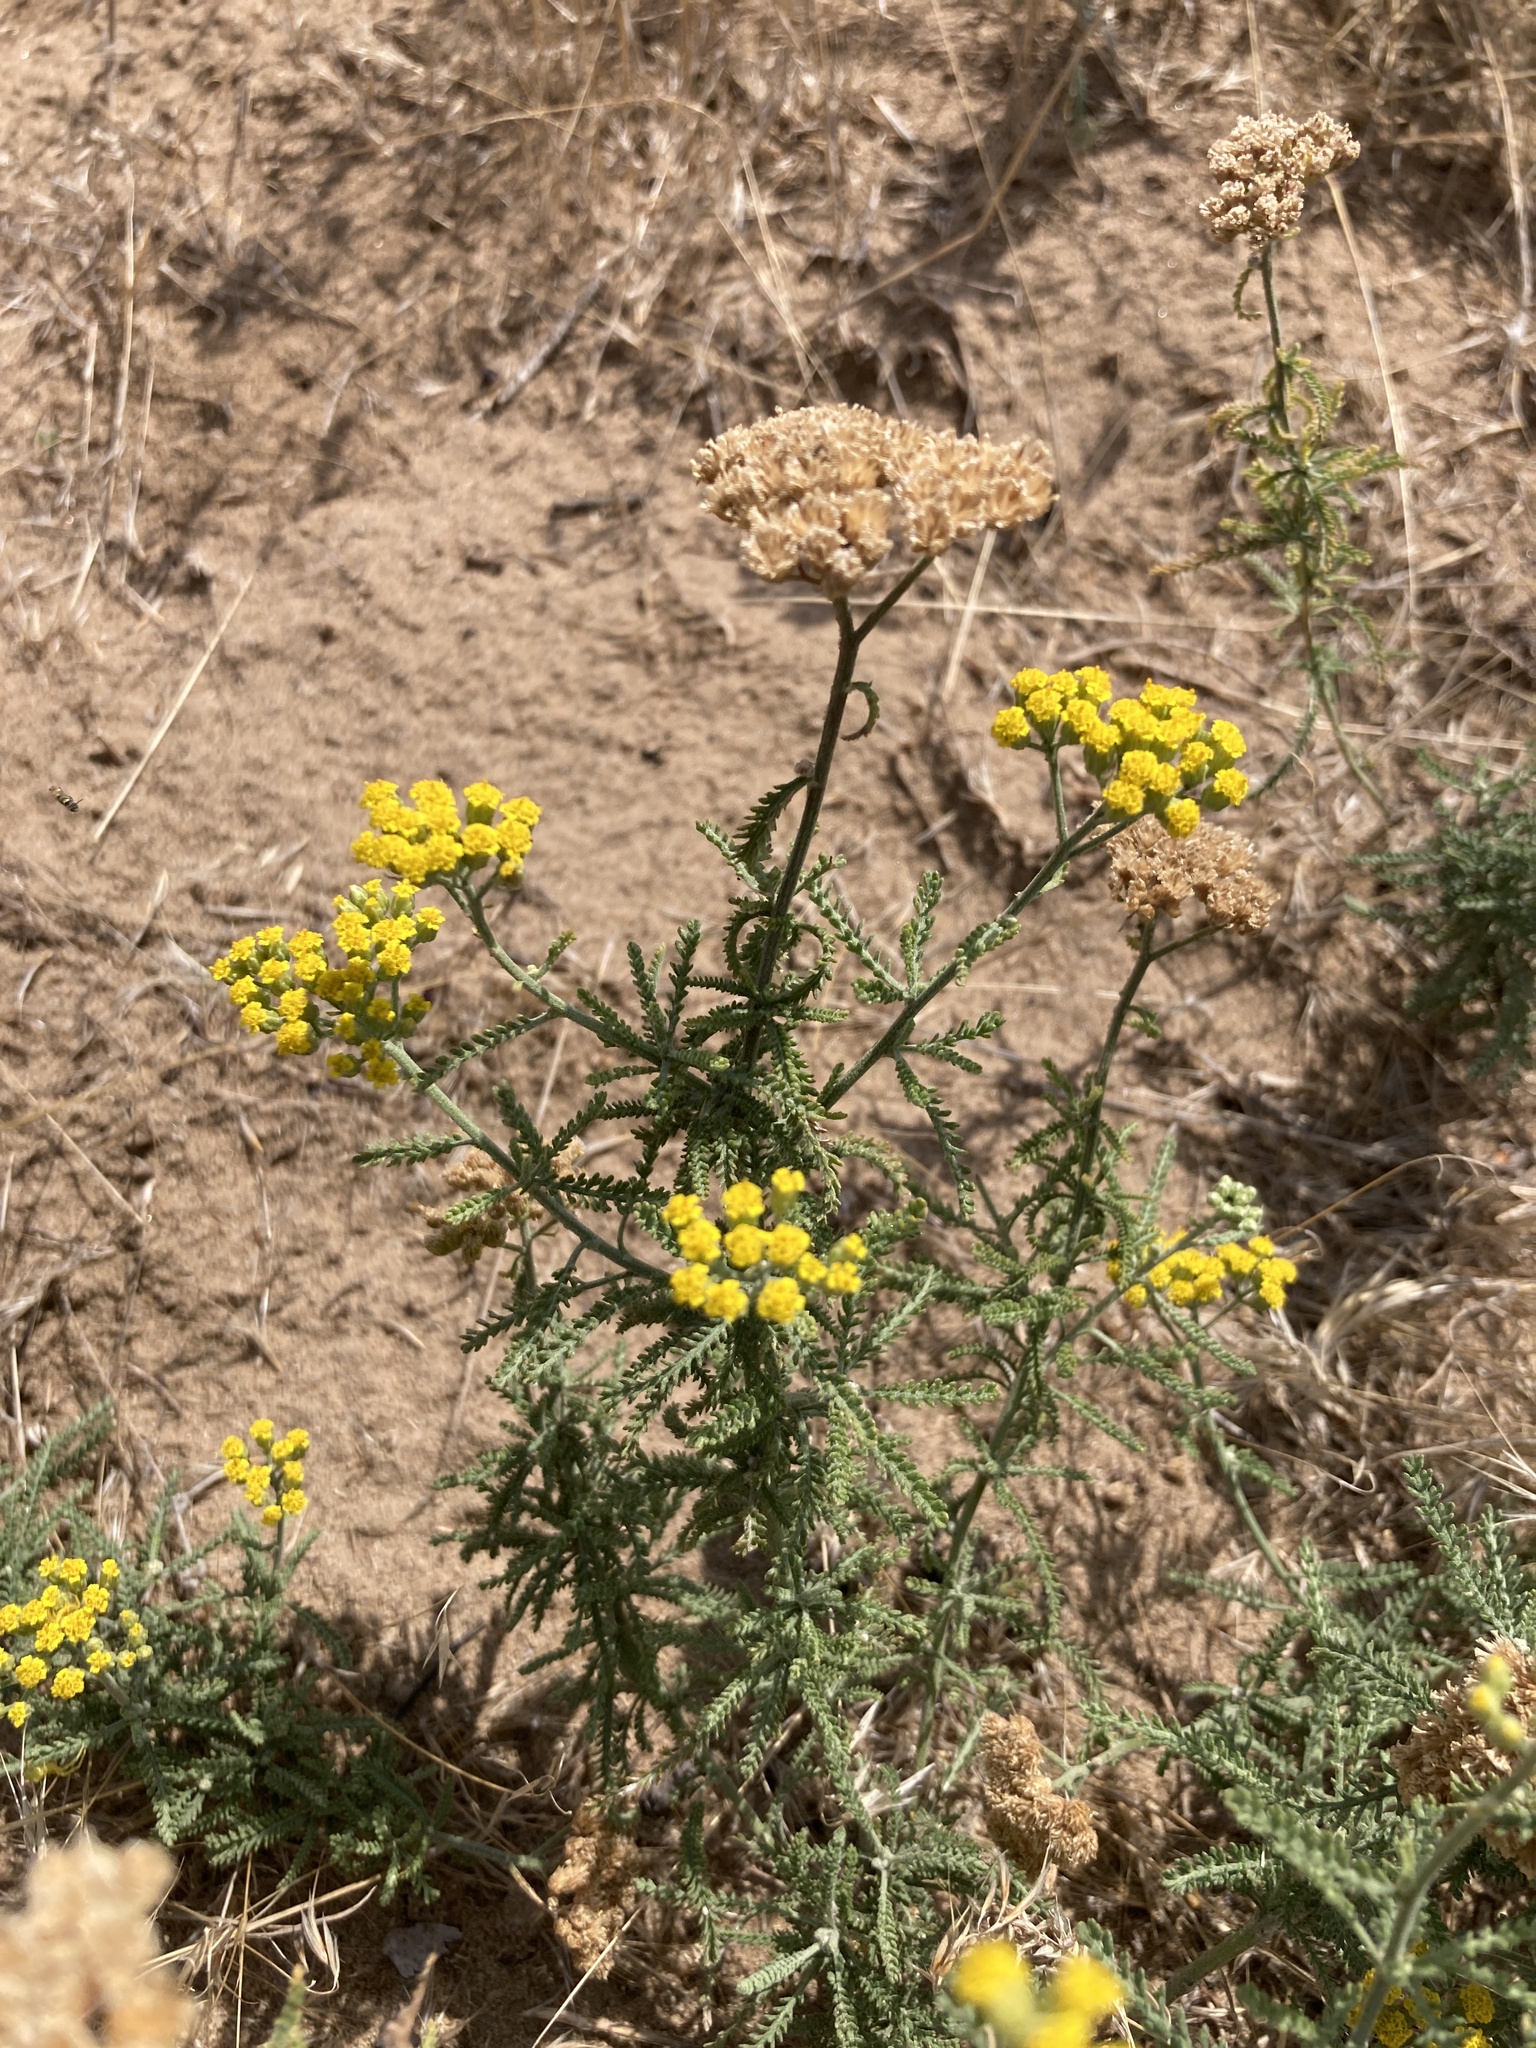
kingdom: Plantae
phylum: Tracheophyta
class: Magnoliopsida
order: Asterales
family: Asteraceae
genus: Achillea
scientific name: Achillea micrantha
